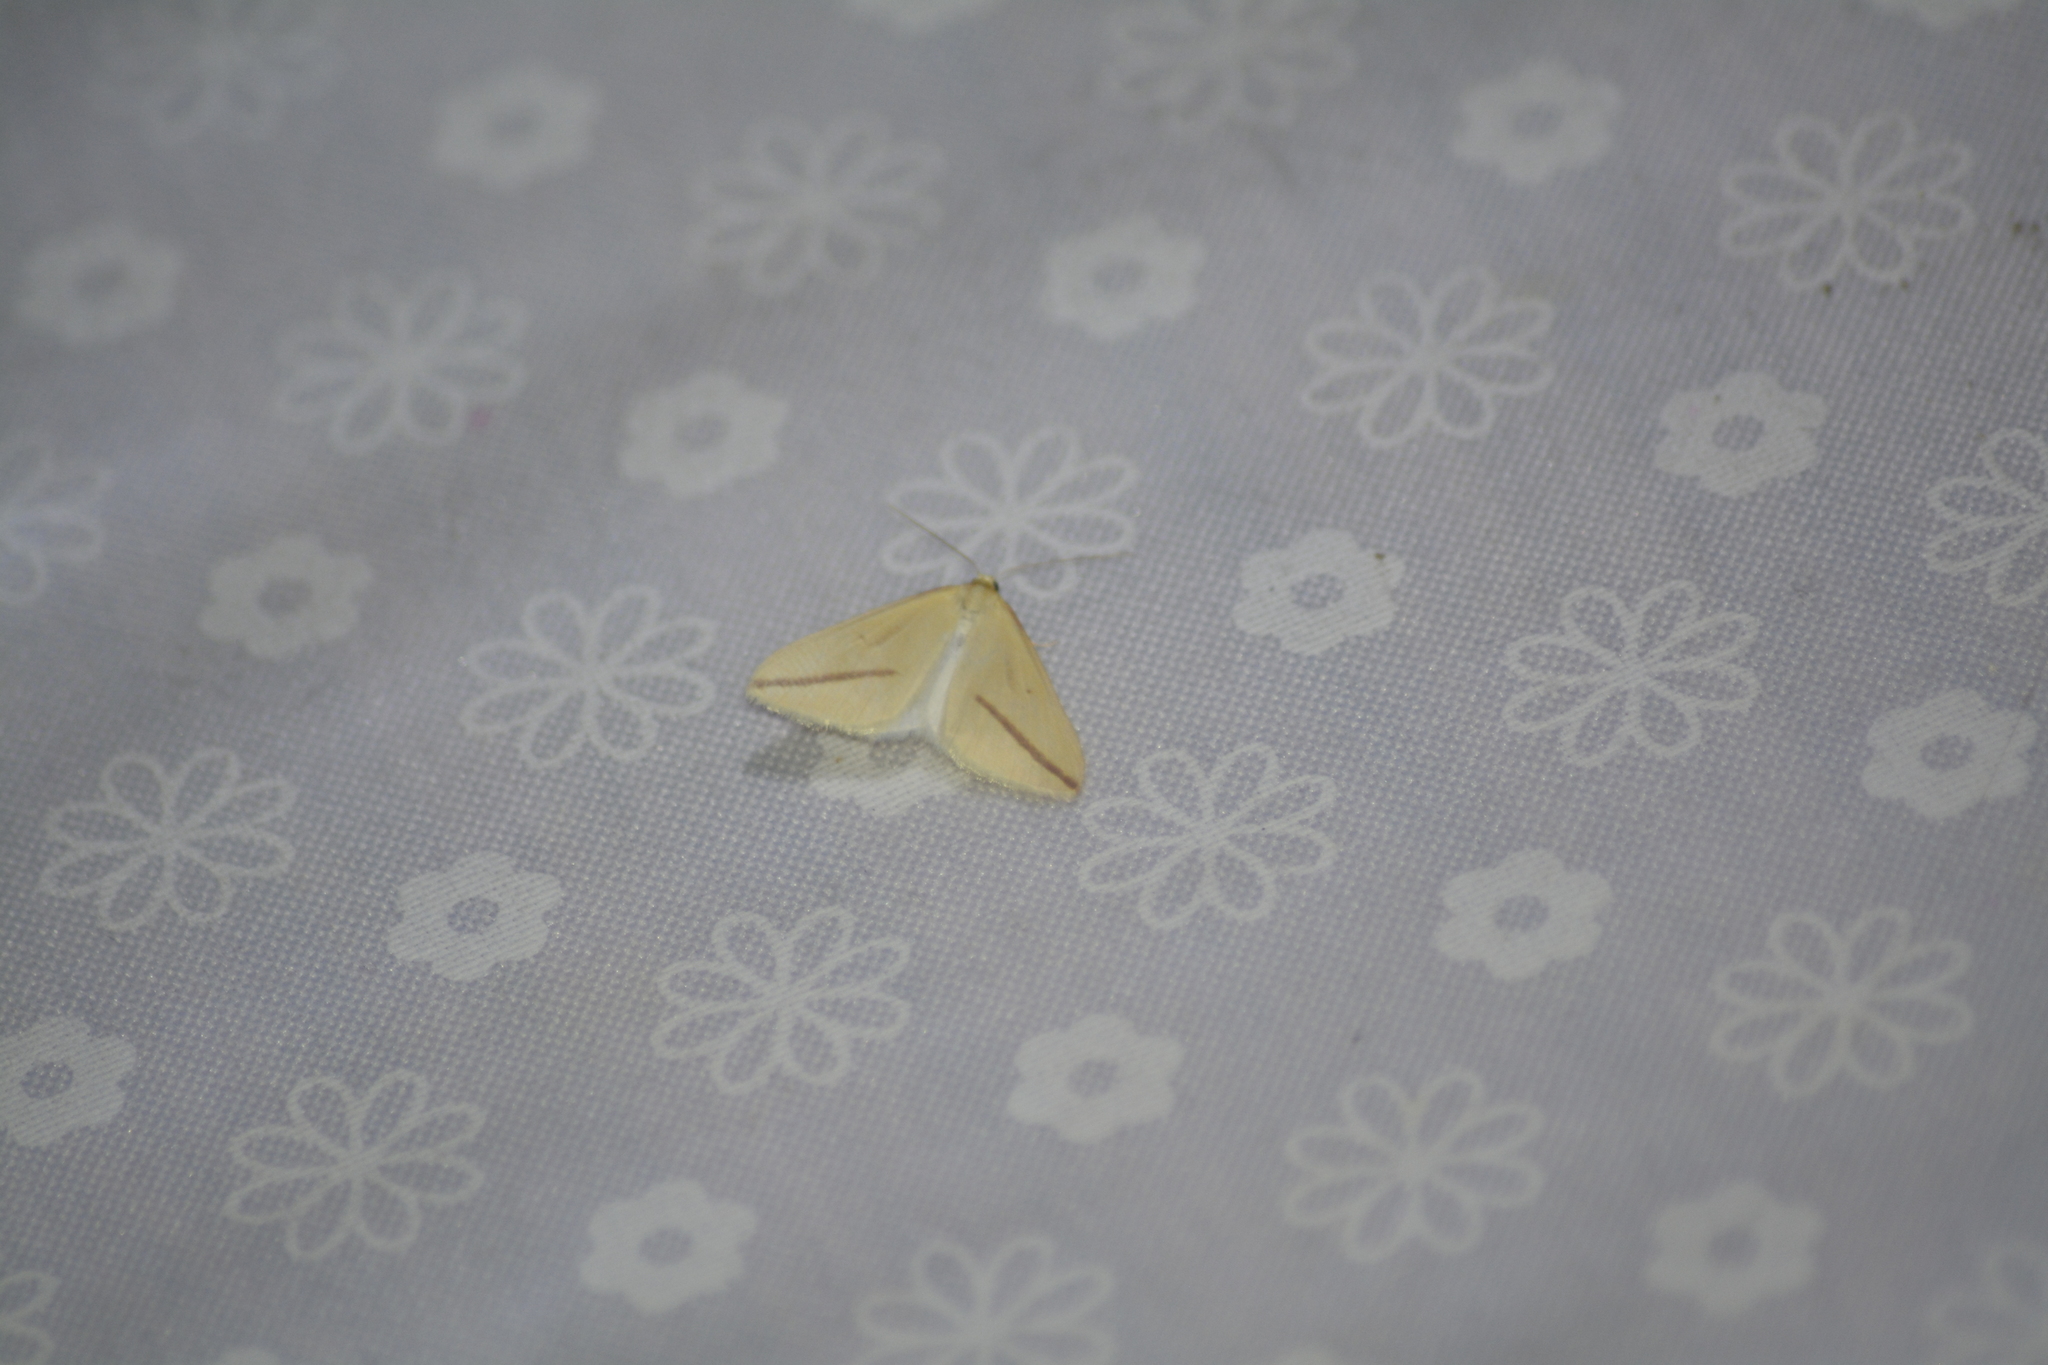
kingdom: Animalia
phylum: Arthropoda
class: Insecta
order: Lepidoptera
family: Geometridae
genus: Rhodometra
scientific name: Rhodometra sacraria
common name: Vestal
